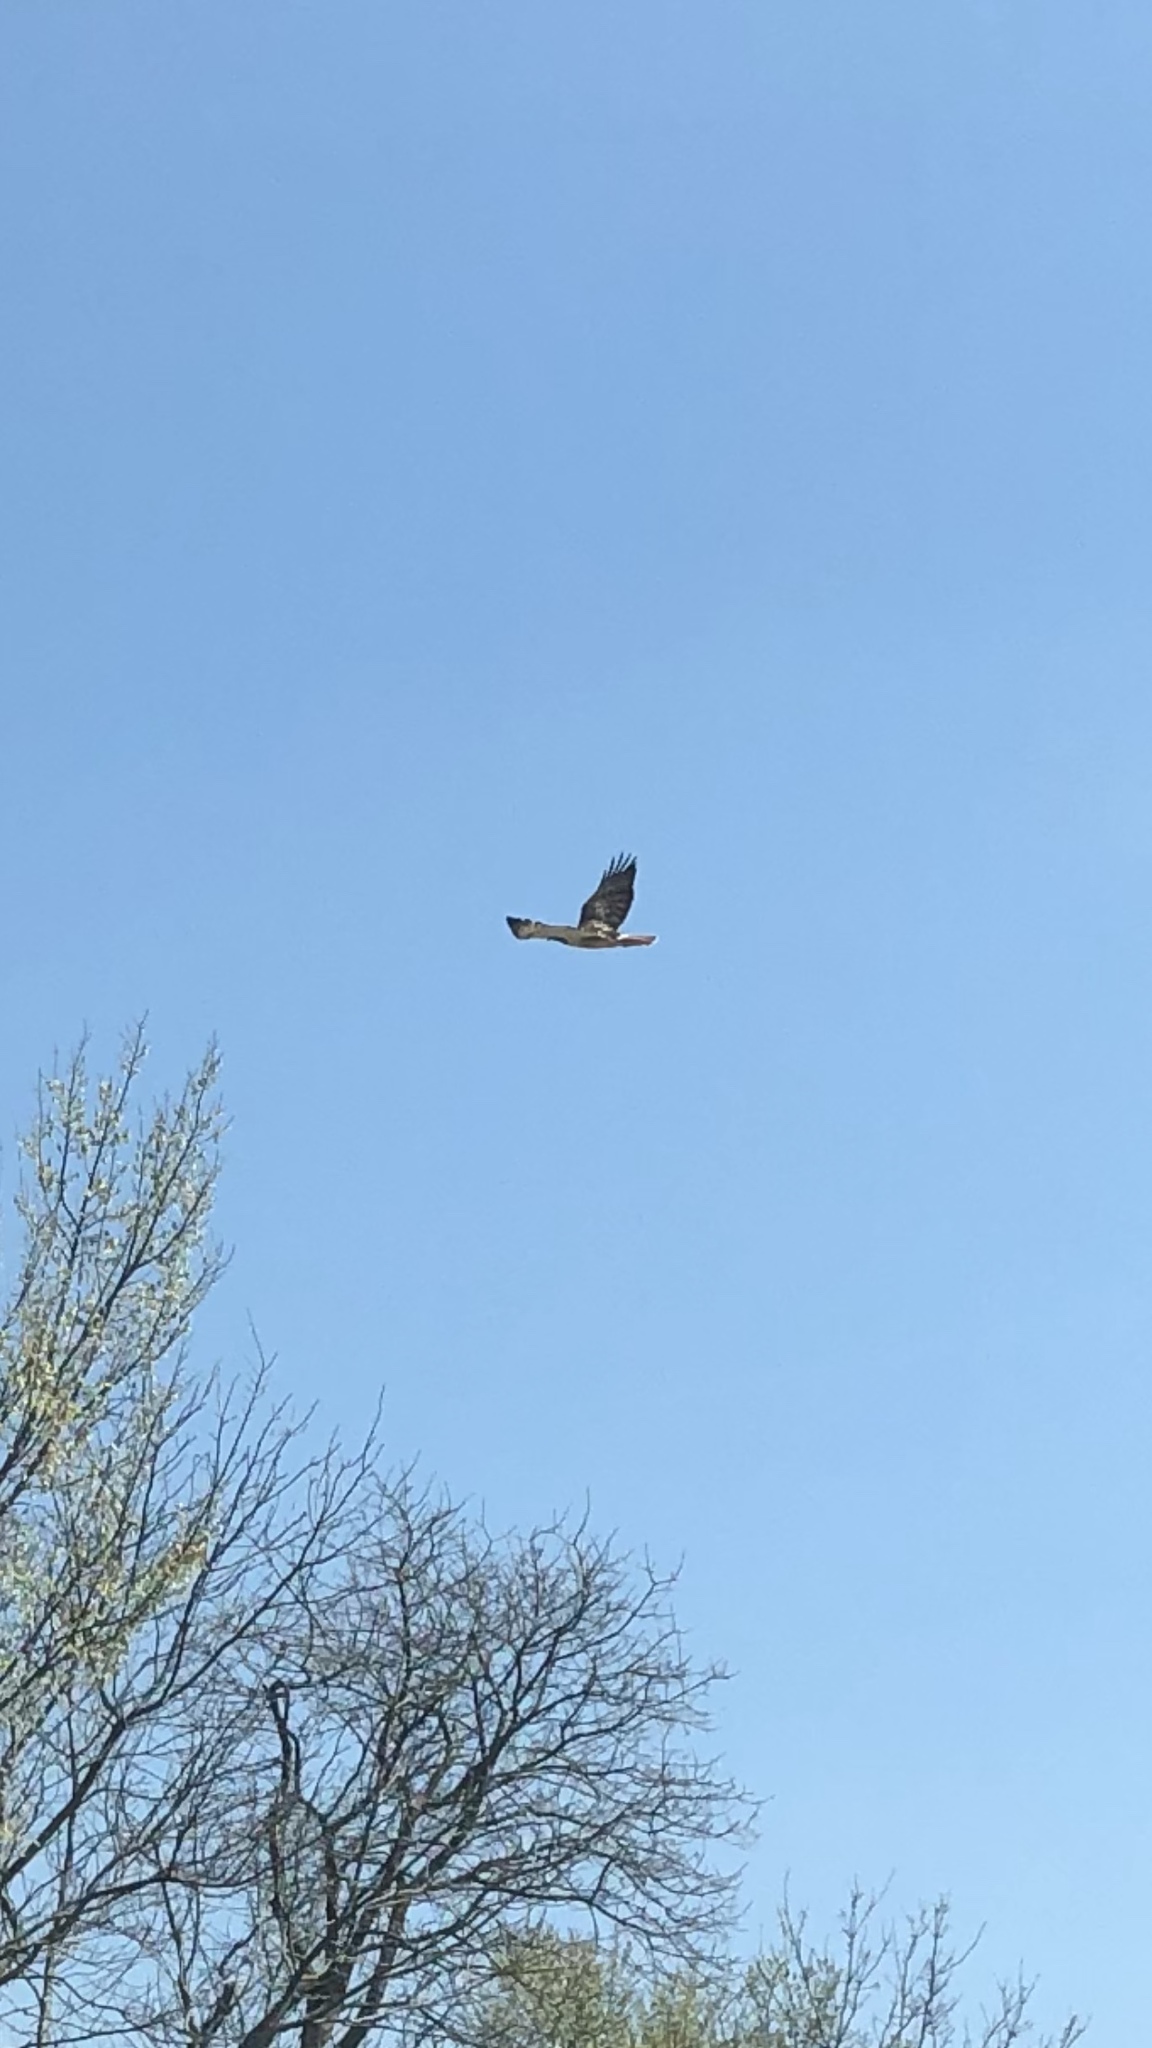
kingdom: Animalia
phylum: Chordata
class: Aves
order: Accipitriformes
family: Accipitridae
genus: Buteo
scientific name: Buteo jamaicensis
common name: Red-tailed hawk
